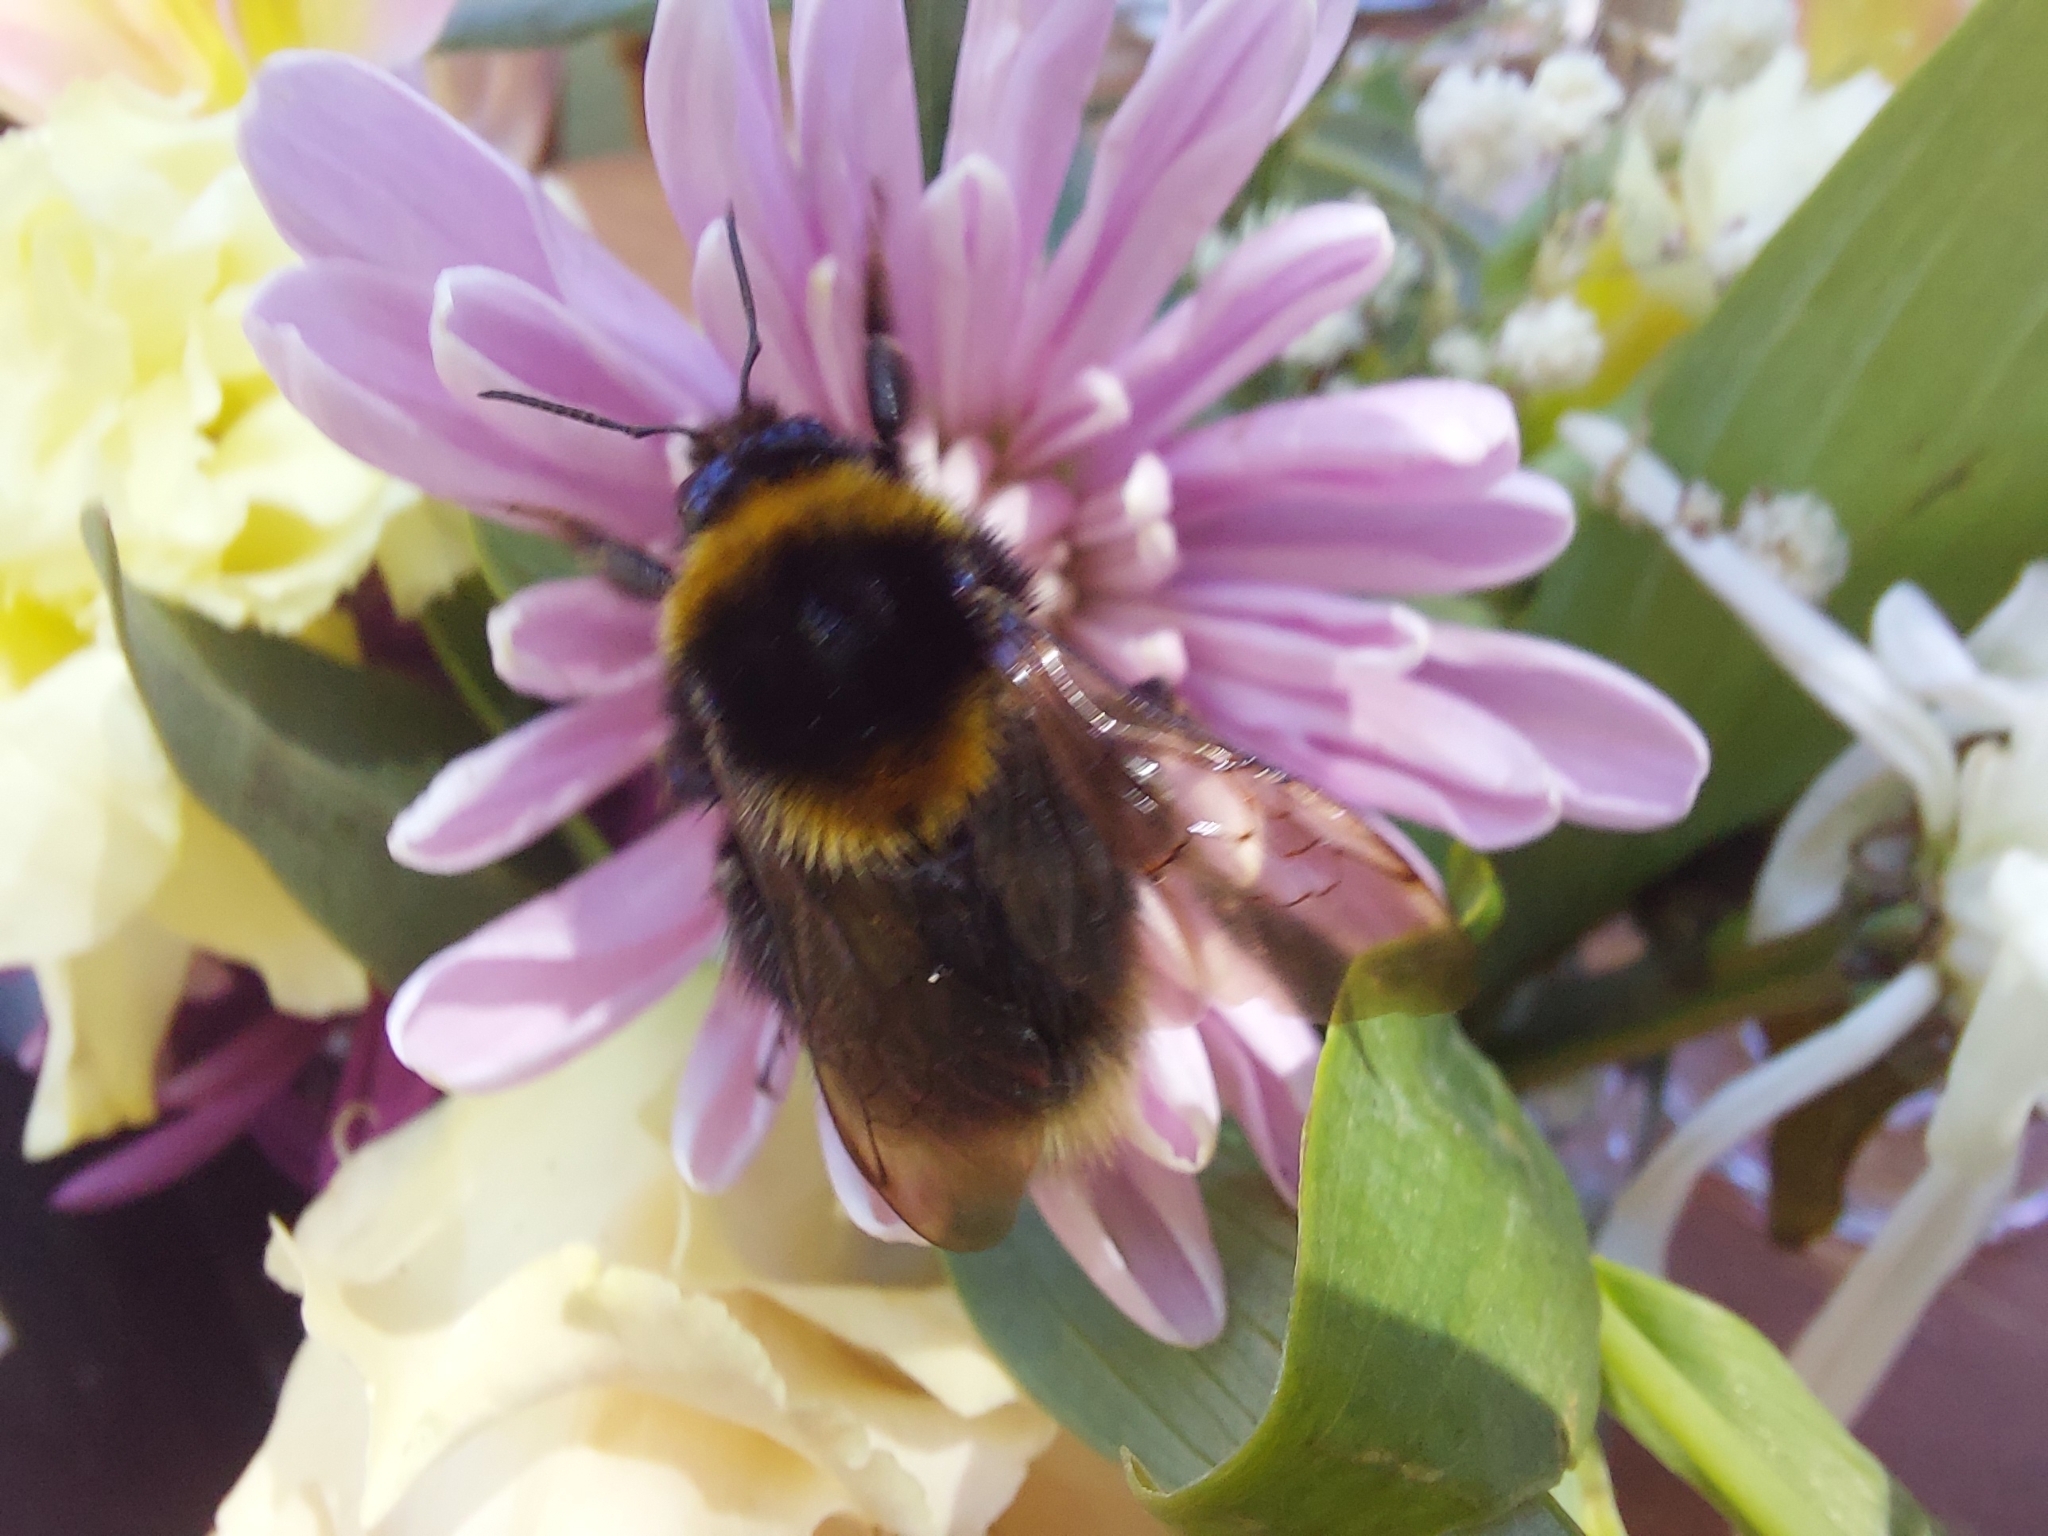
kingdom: Animalia
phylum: Arthropoda
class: Insecta
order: Hymenoptera
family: Apidae
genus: Bombus
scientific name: Bombus ruderatus
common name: Large garden bumblebee
